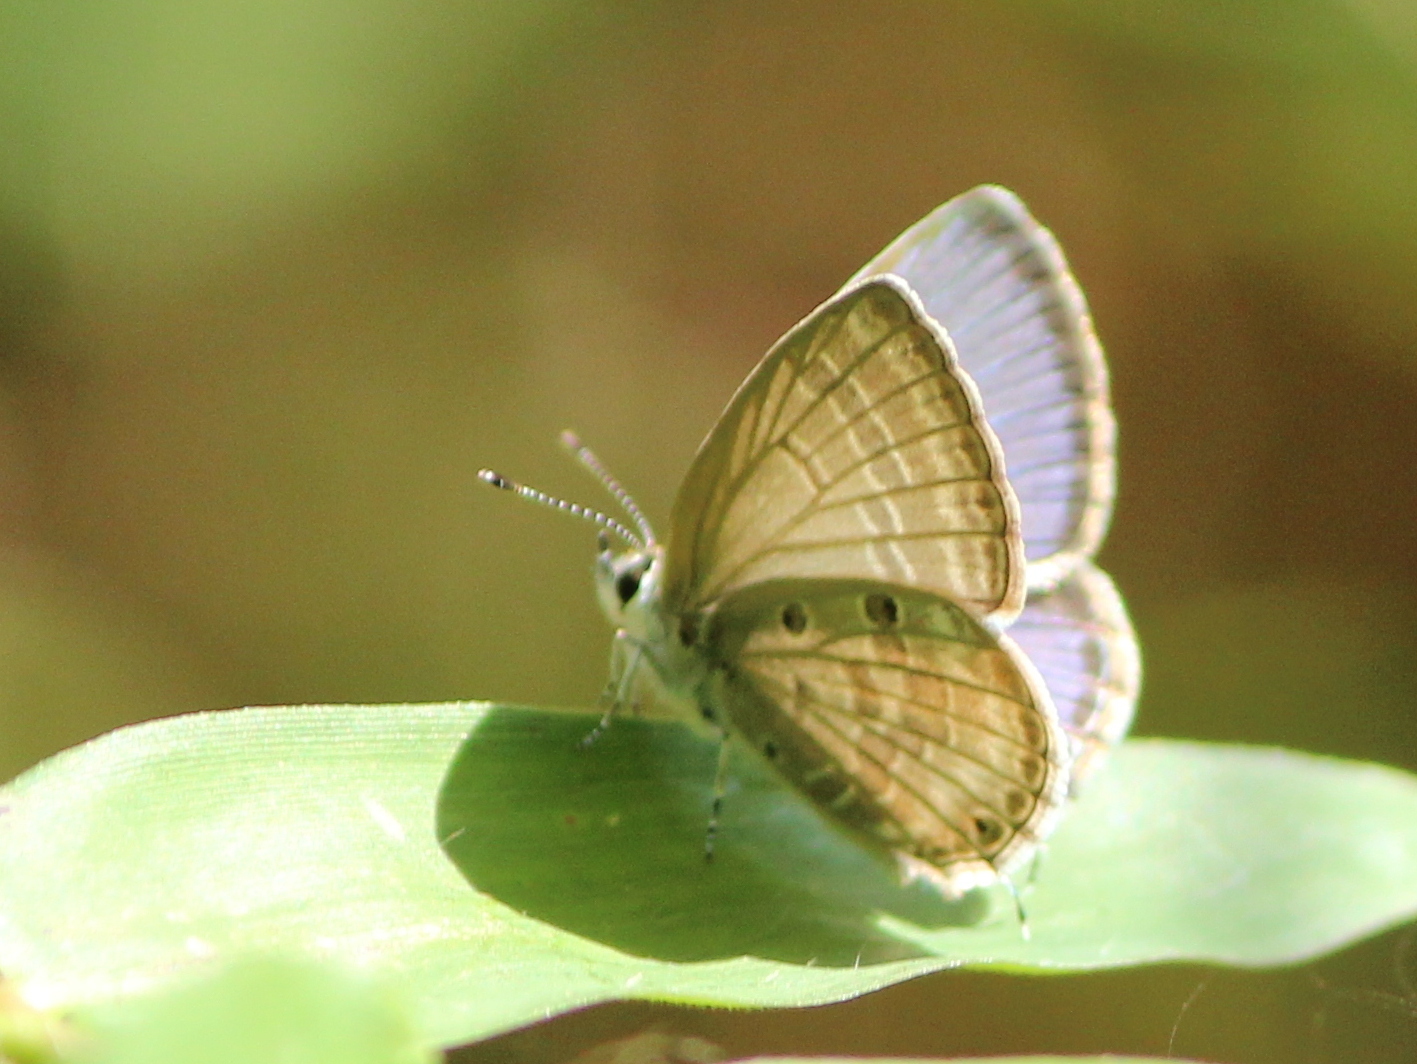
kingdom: Animalia
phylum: Arthropoda
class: Insecta
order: Lepidoptera
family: Lycaenidae
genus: Luthrodes
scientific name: Luthrodes pandava
